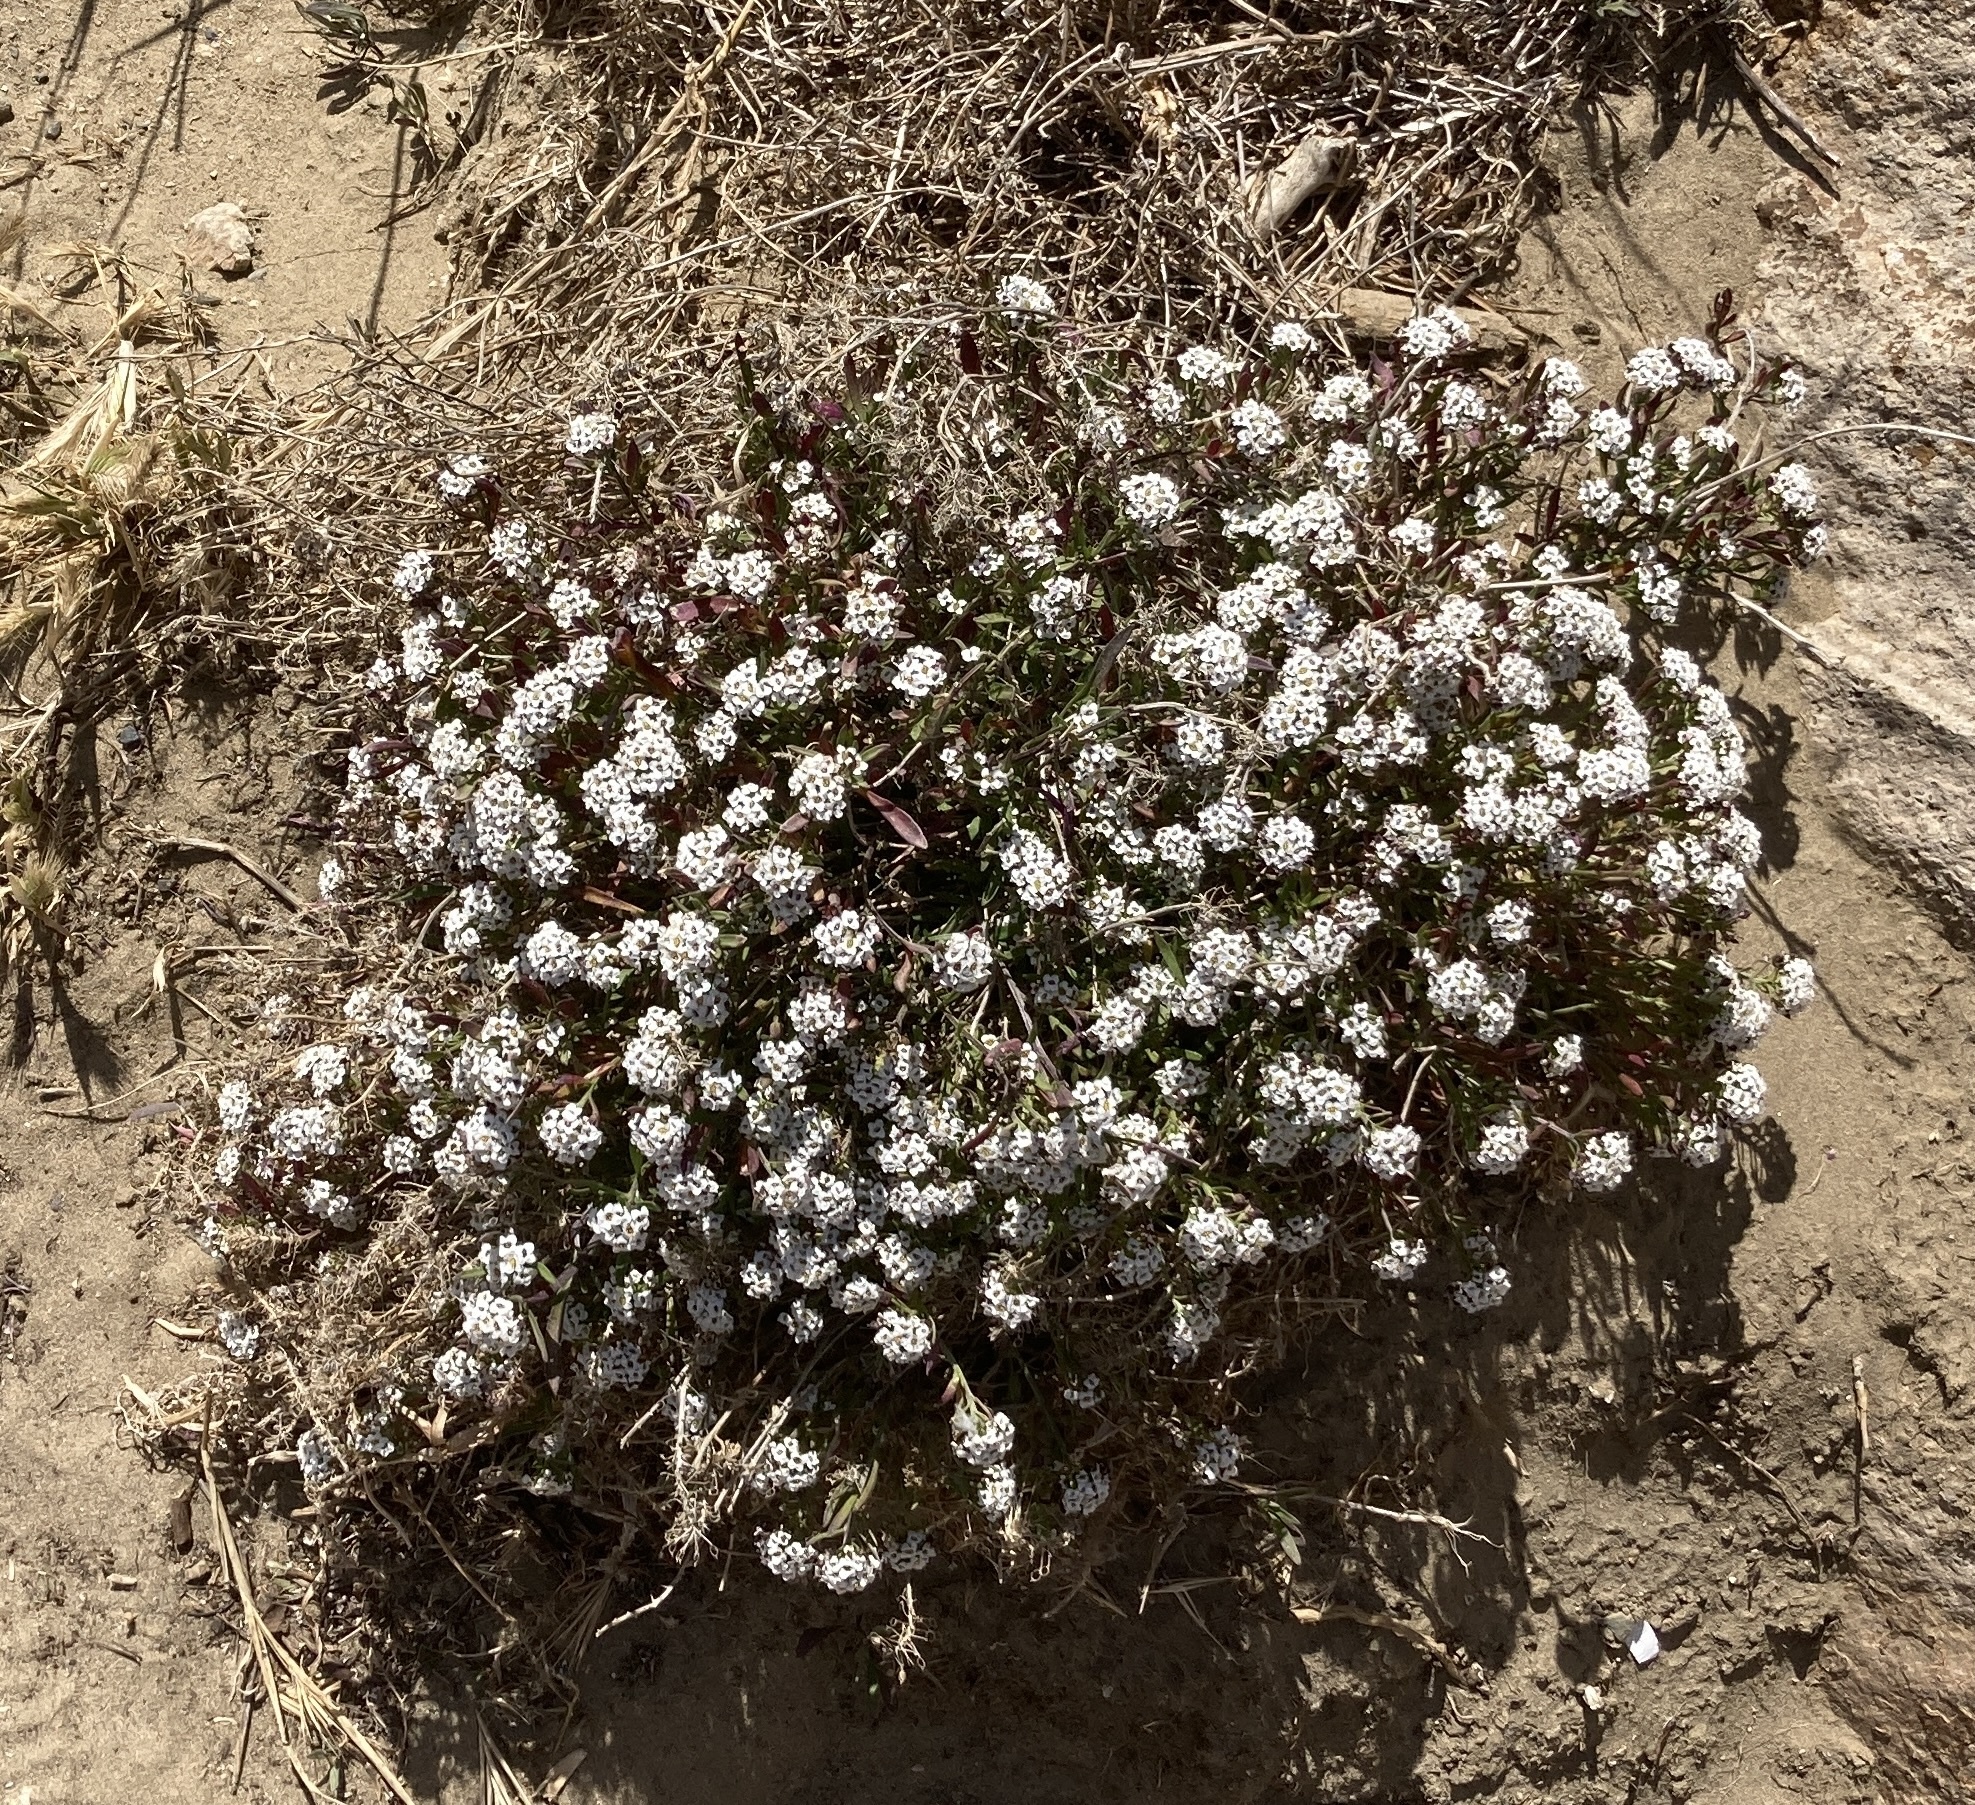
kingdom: Plantae
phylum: Tracheophyta
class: Magnoliopsida
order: Brassicales
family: Brassicaceae
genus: Lobularia
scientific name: Lobularia maritima
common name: Sweet alison
